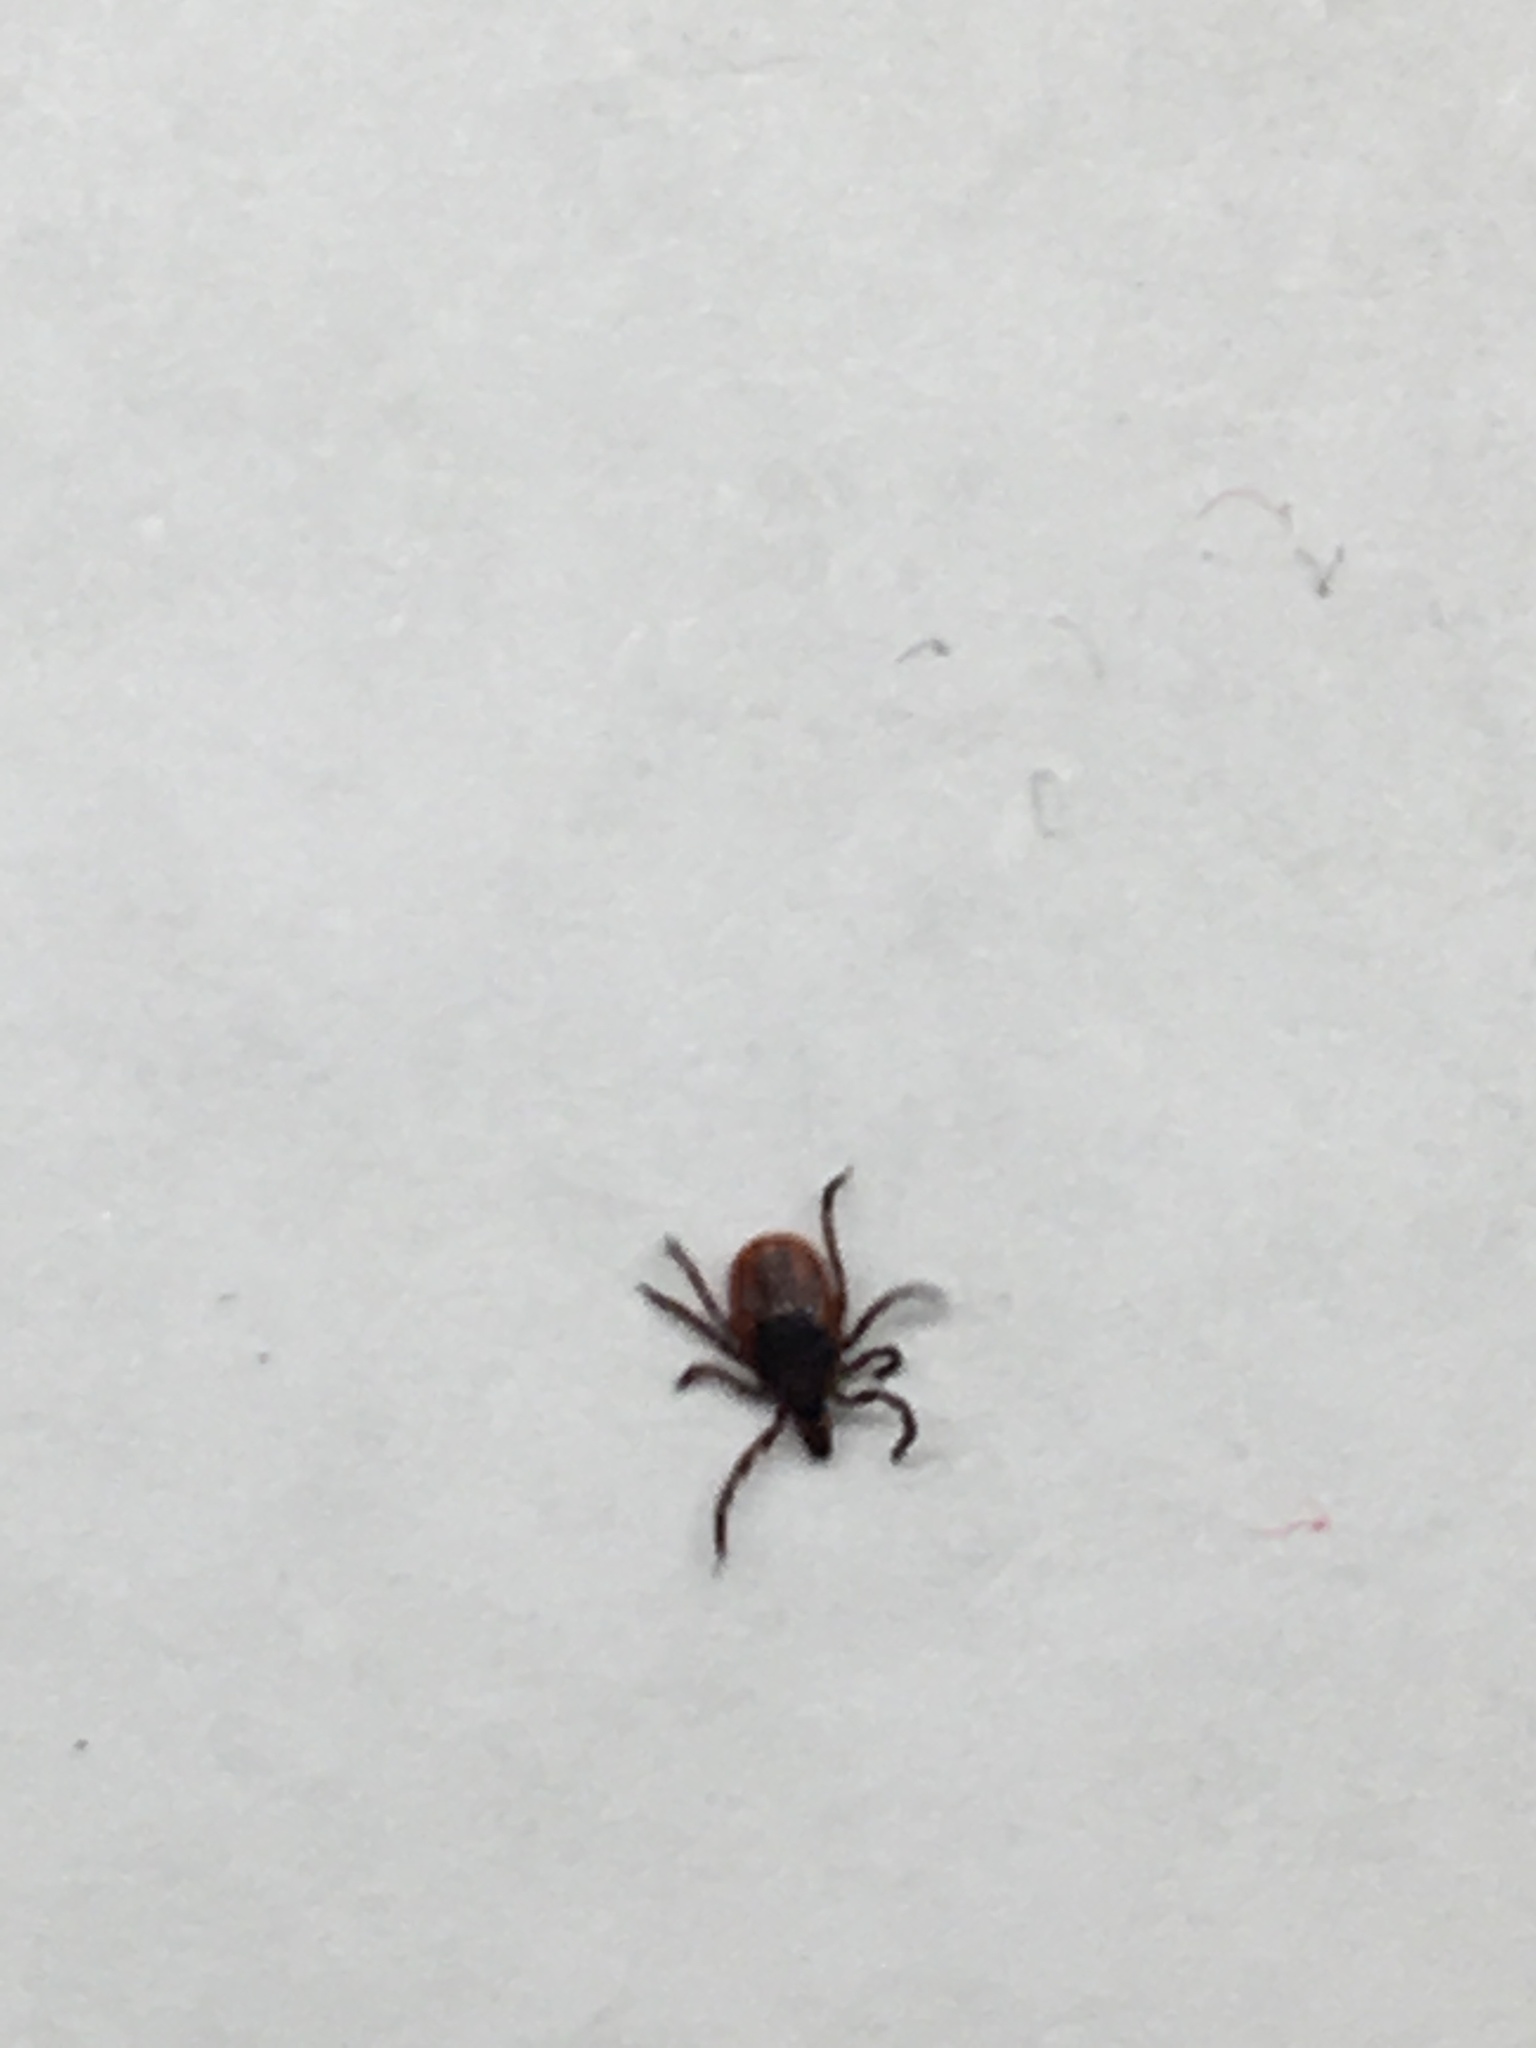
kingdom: Animalia
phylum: Arthropoda
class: Arachnida
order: Ixodida
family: Ixodidae
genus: Ixodes
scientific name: Ixodes scapularis
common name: Black legged tick
